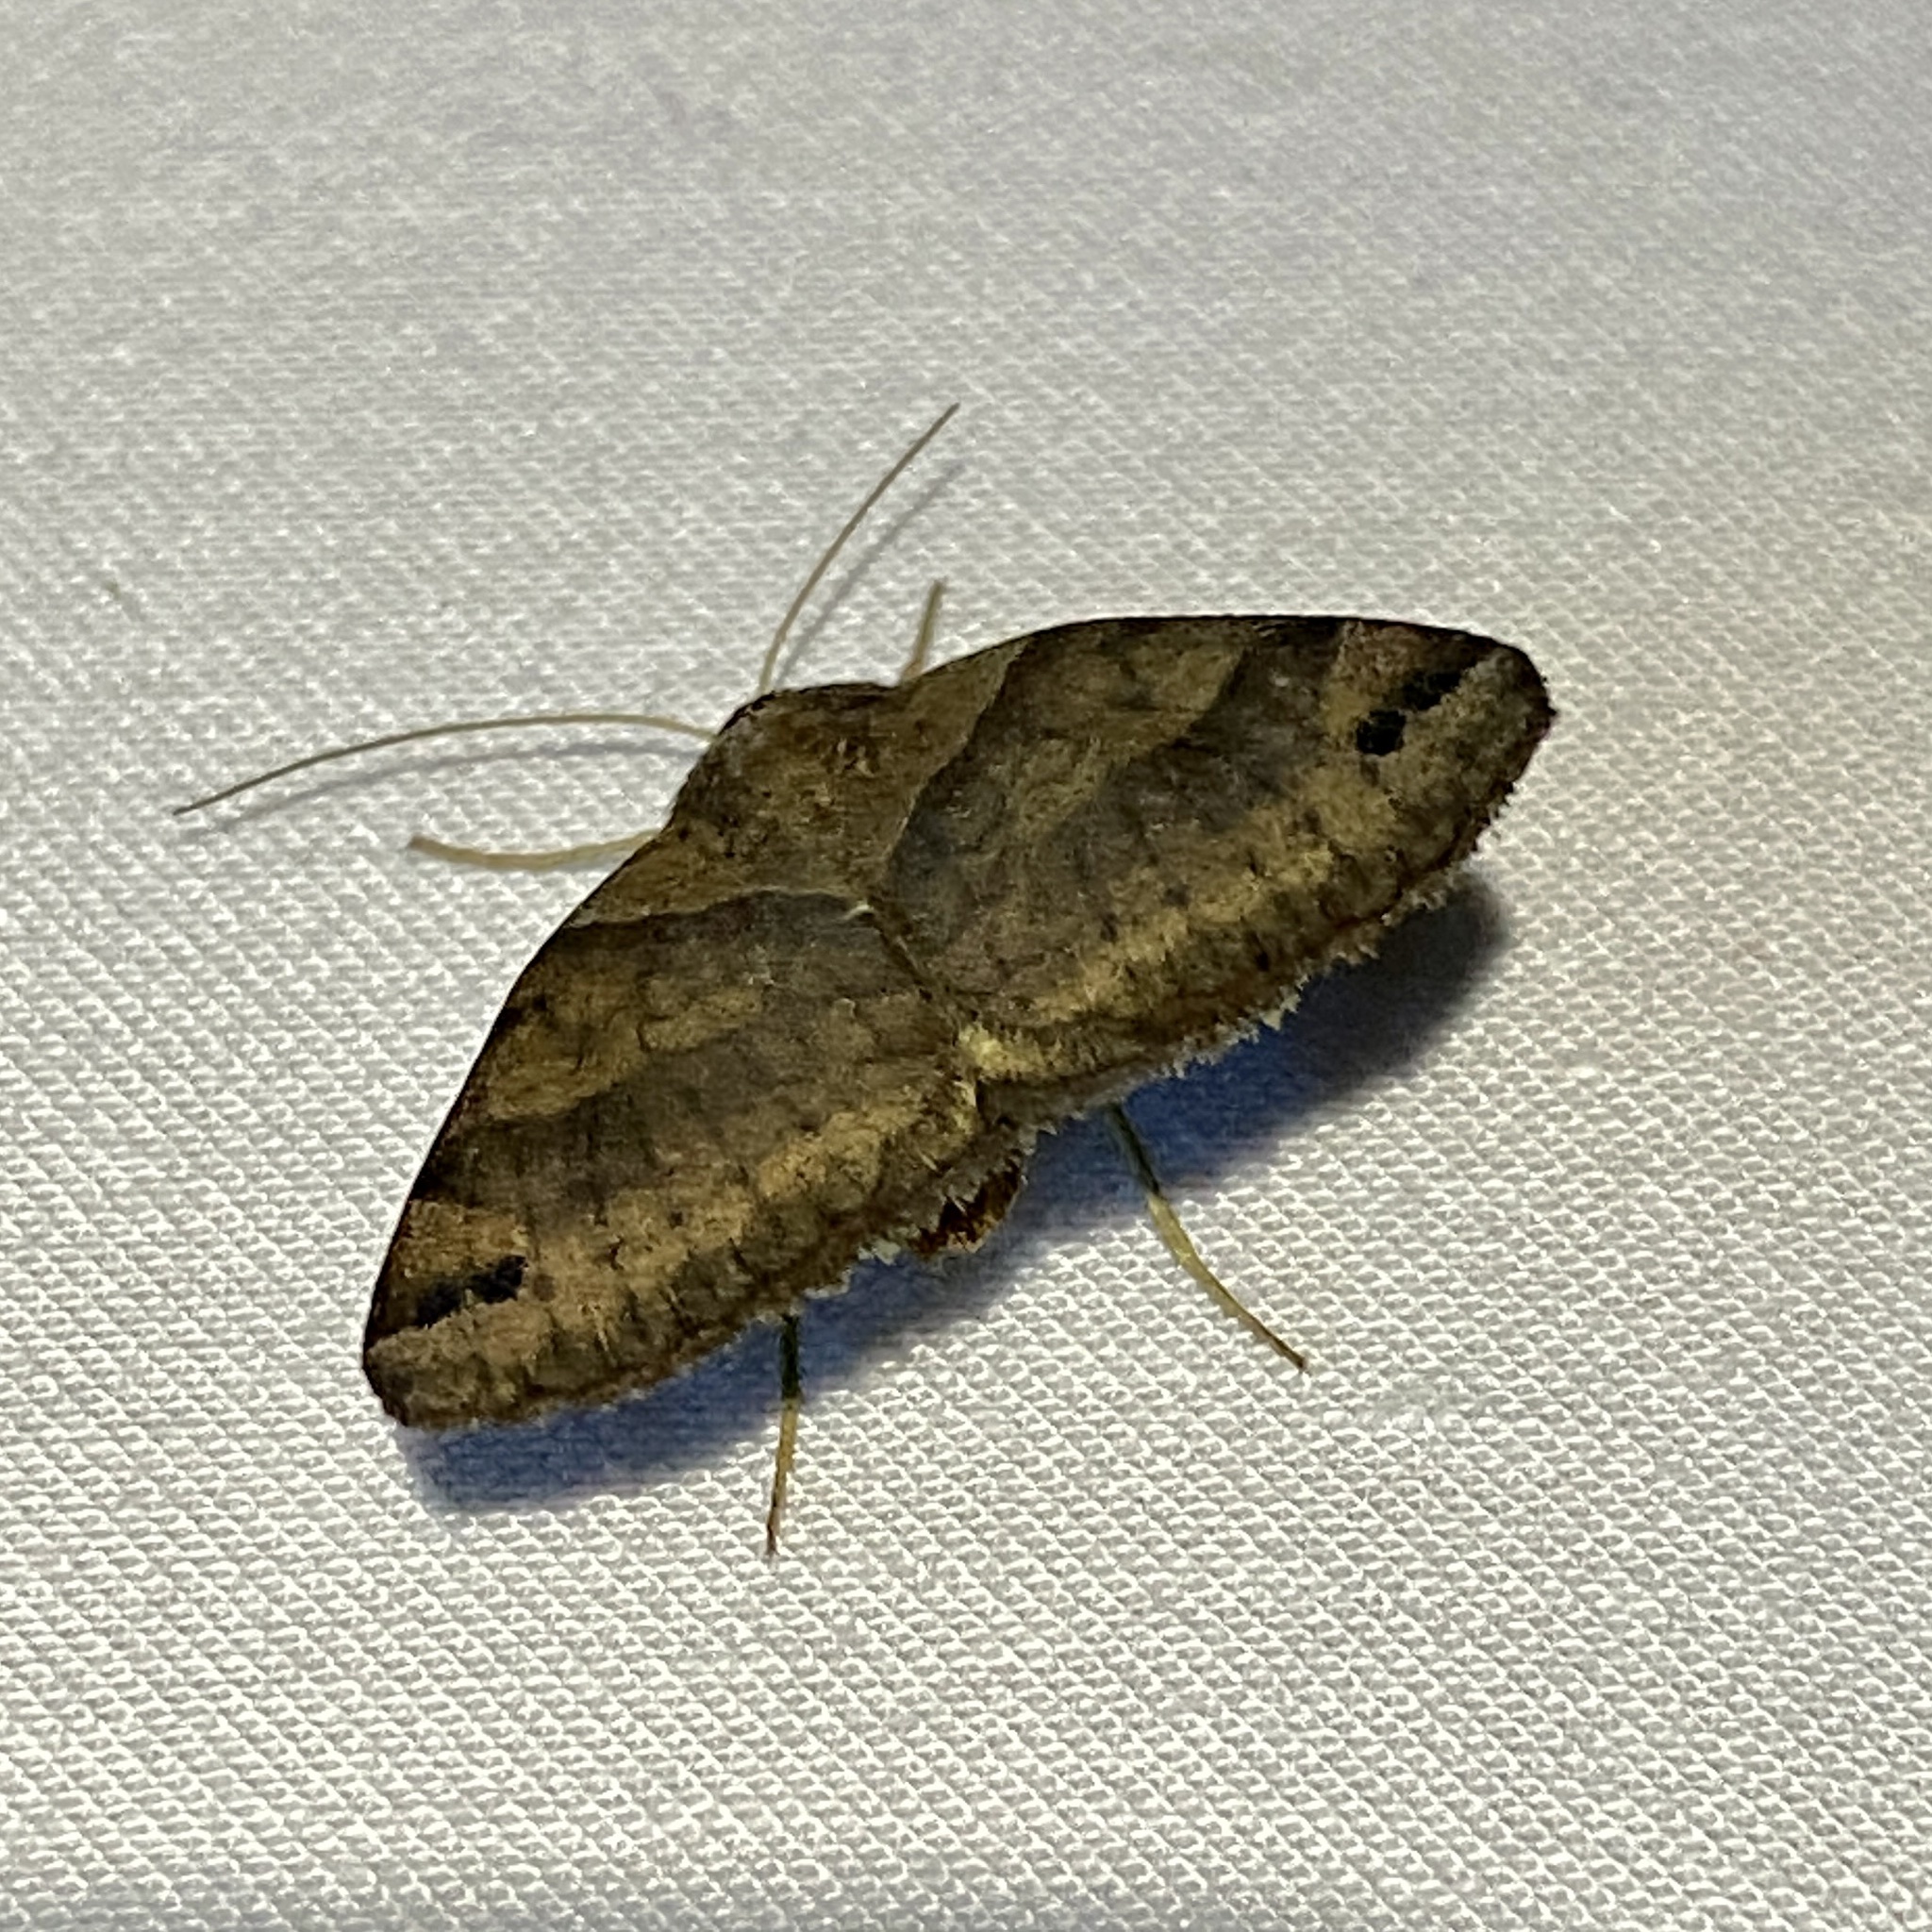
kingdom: Animalia
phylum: Arthropoda
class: Insecta
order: Lepidoptera
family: Erebidae
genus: Caenurgina
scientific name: Caenurgina crassiuscula
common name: Double-barred
